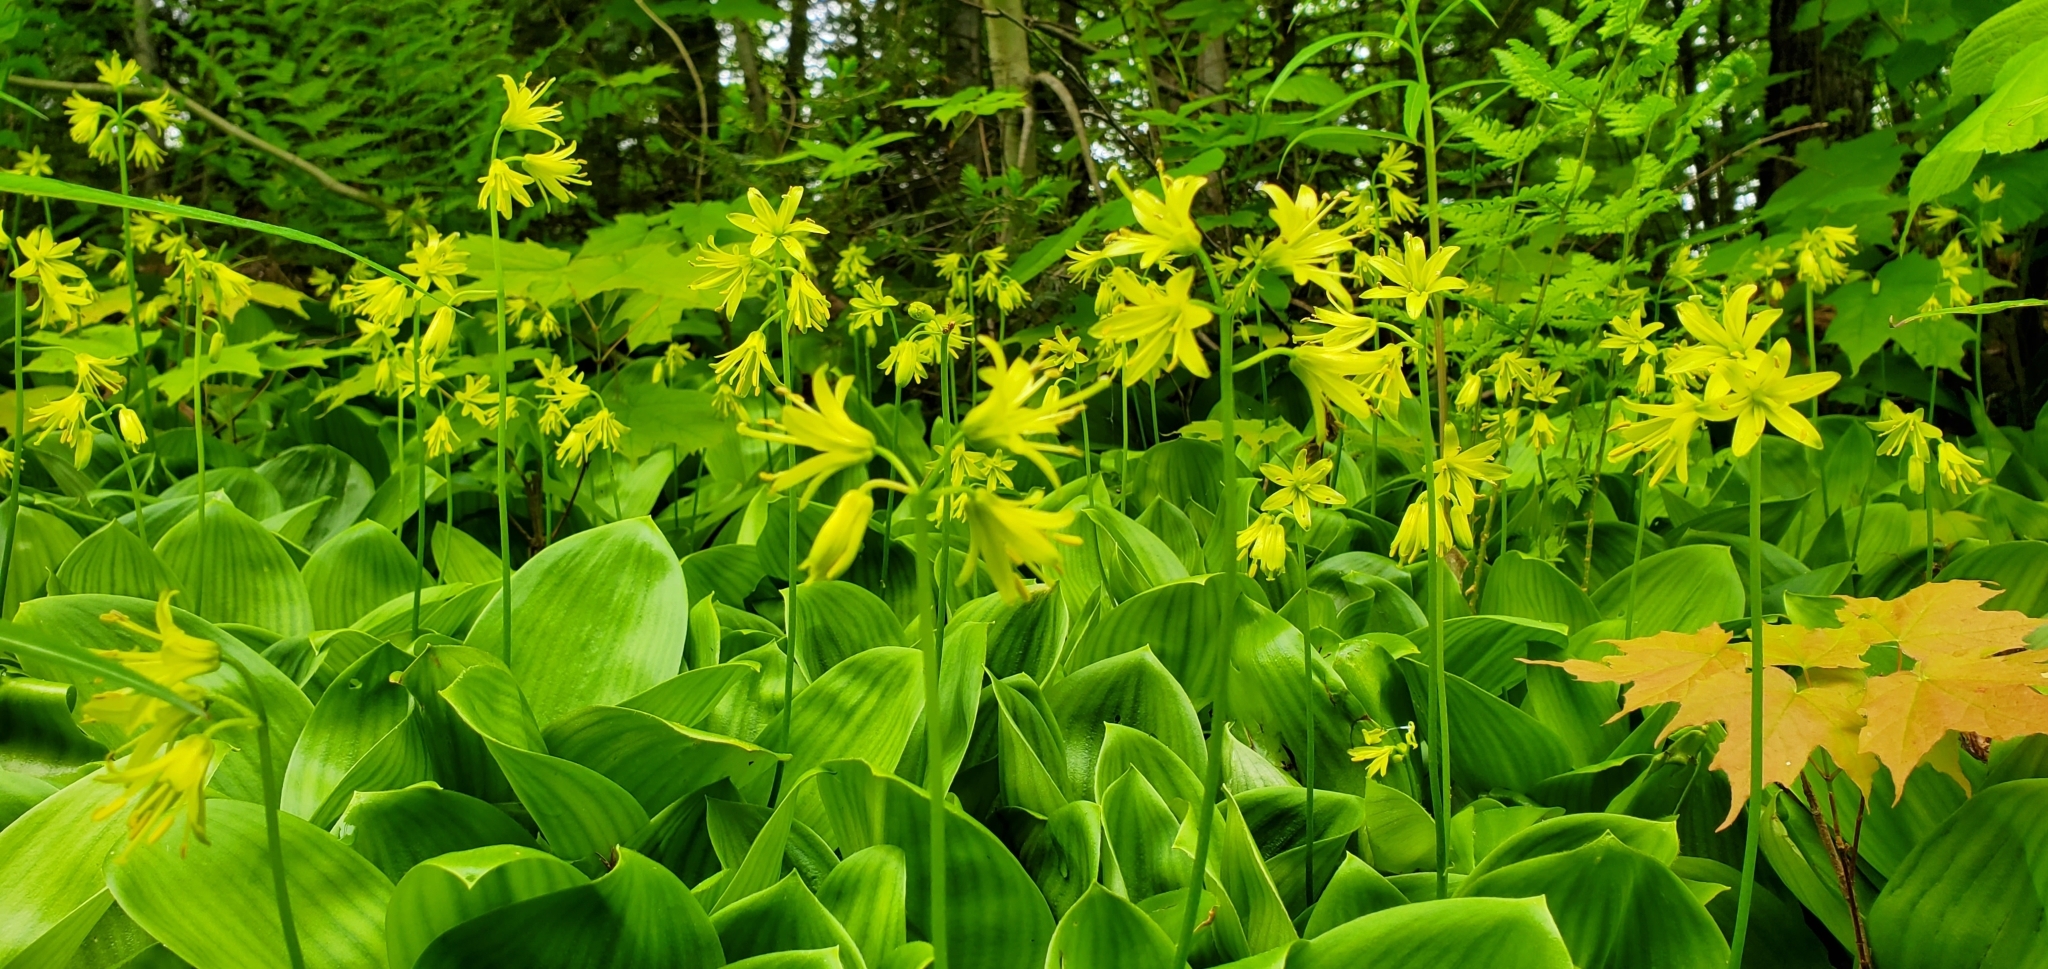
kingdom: Plantae
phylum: Tracheophyta
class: Liliopsida
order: Liliales
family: Liliaceae
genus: Clintonia
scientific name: Clintonia borealis
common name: Yellow clintonia
